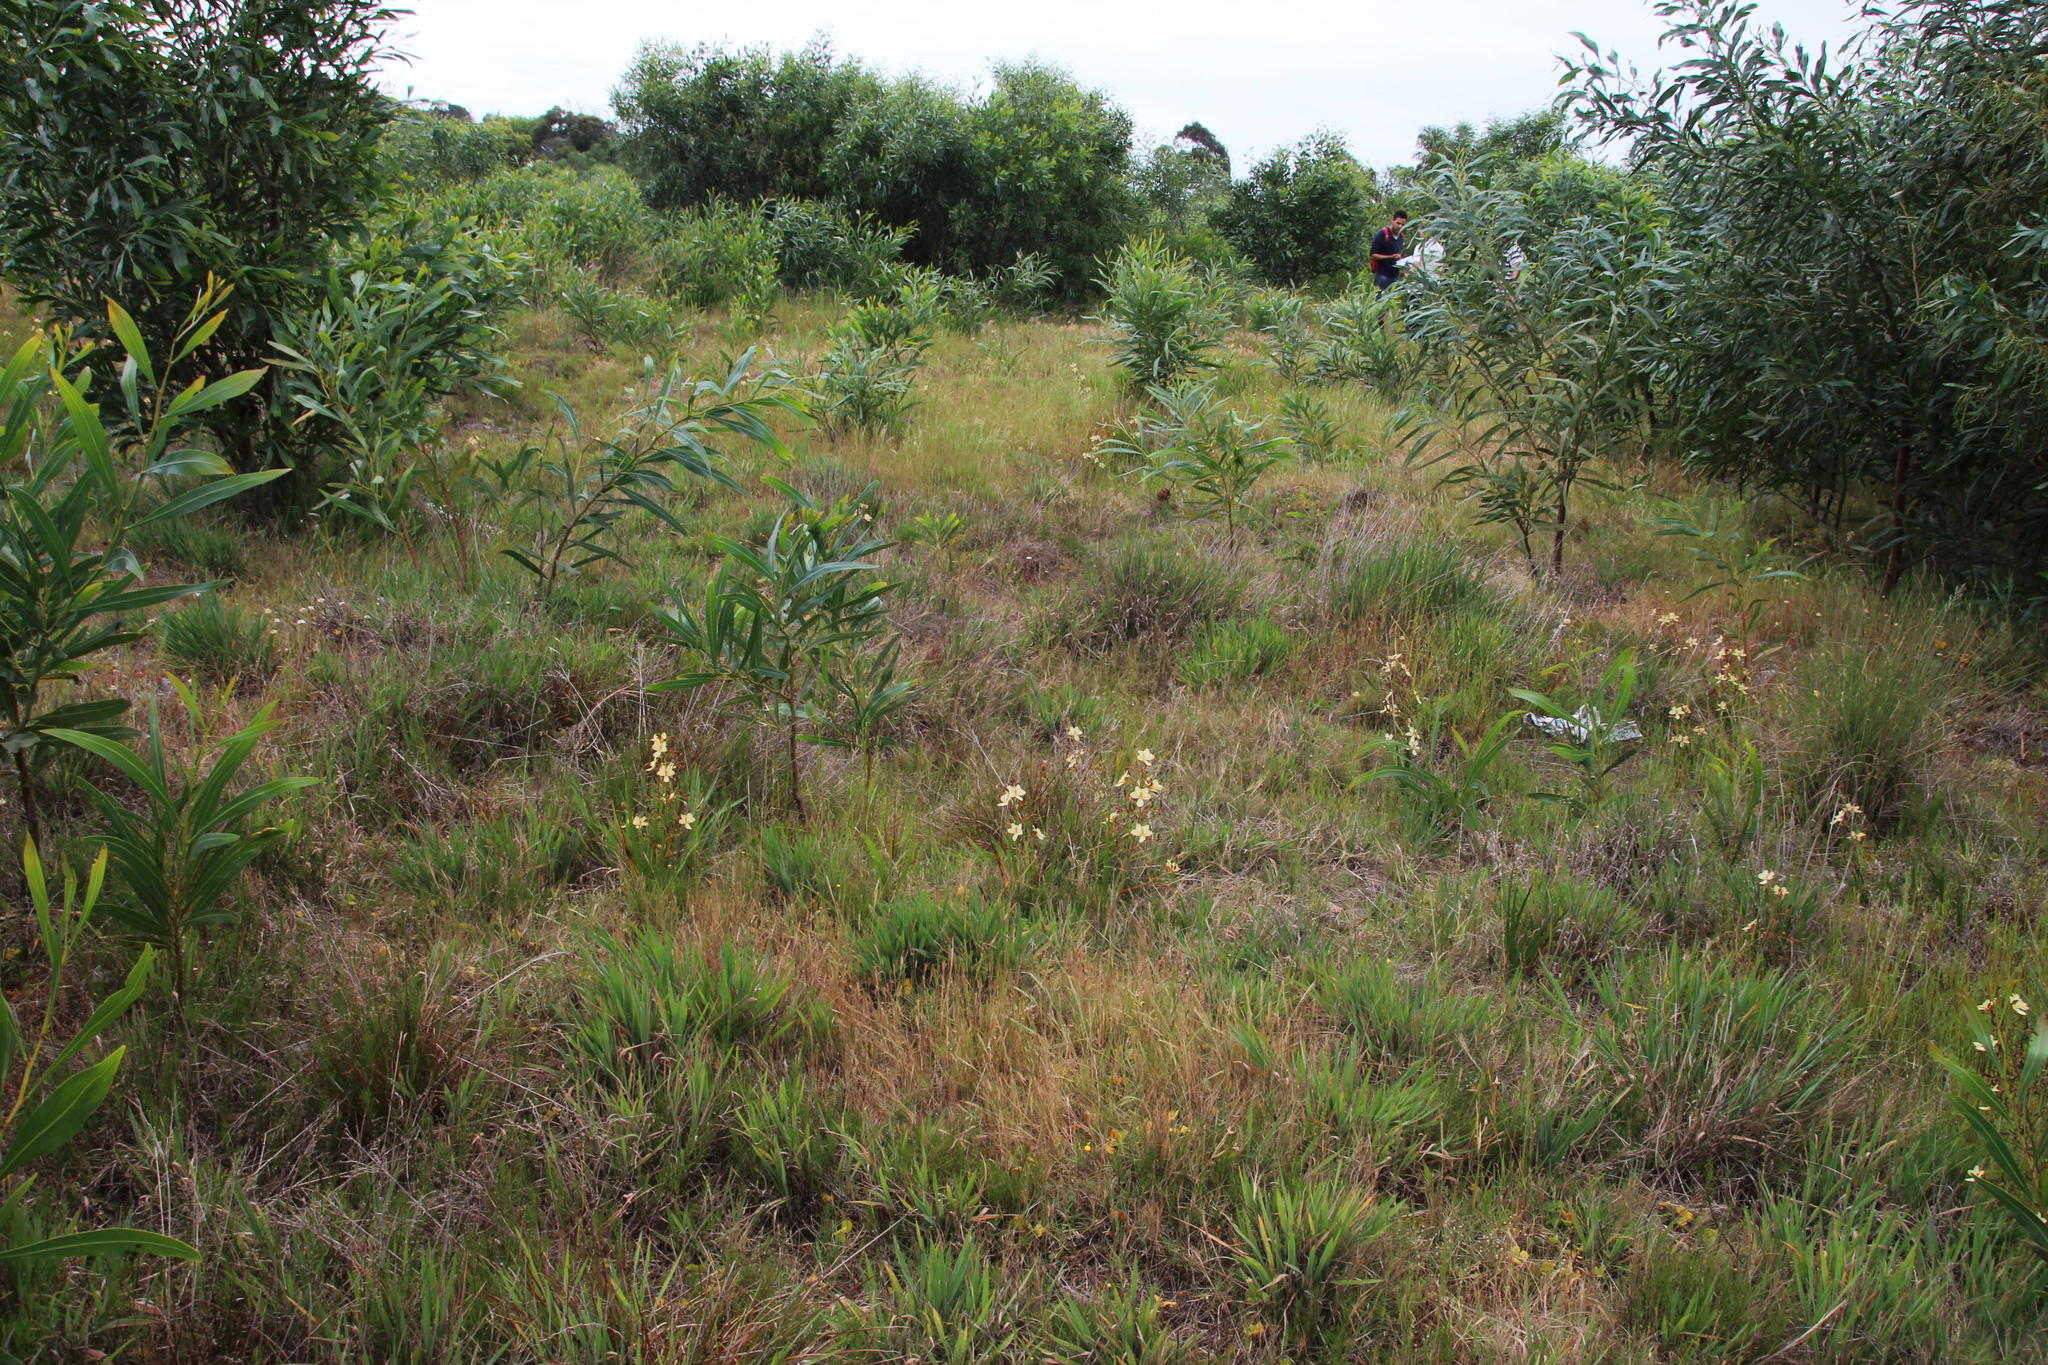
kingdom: Plantae
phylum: Tracheophyta
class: Liliopsida
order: Commelinales
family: Haemodoraceae
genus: Wachendorfia
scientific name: Wachendorfia paniculata
